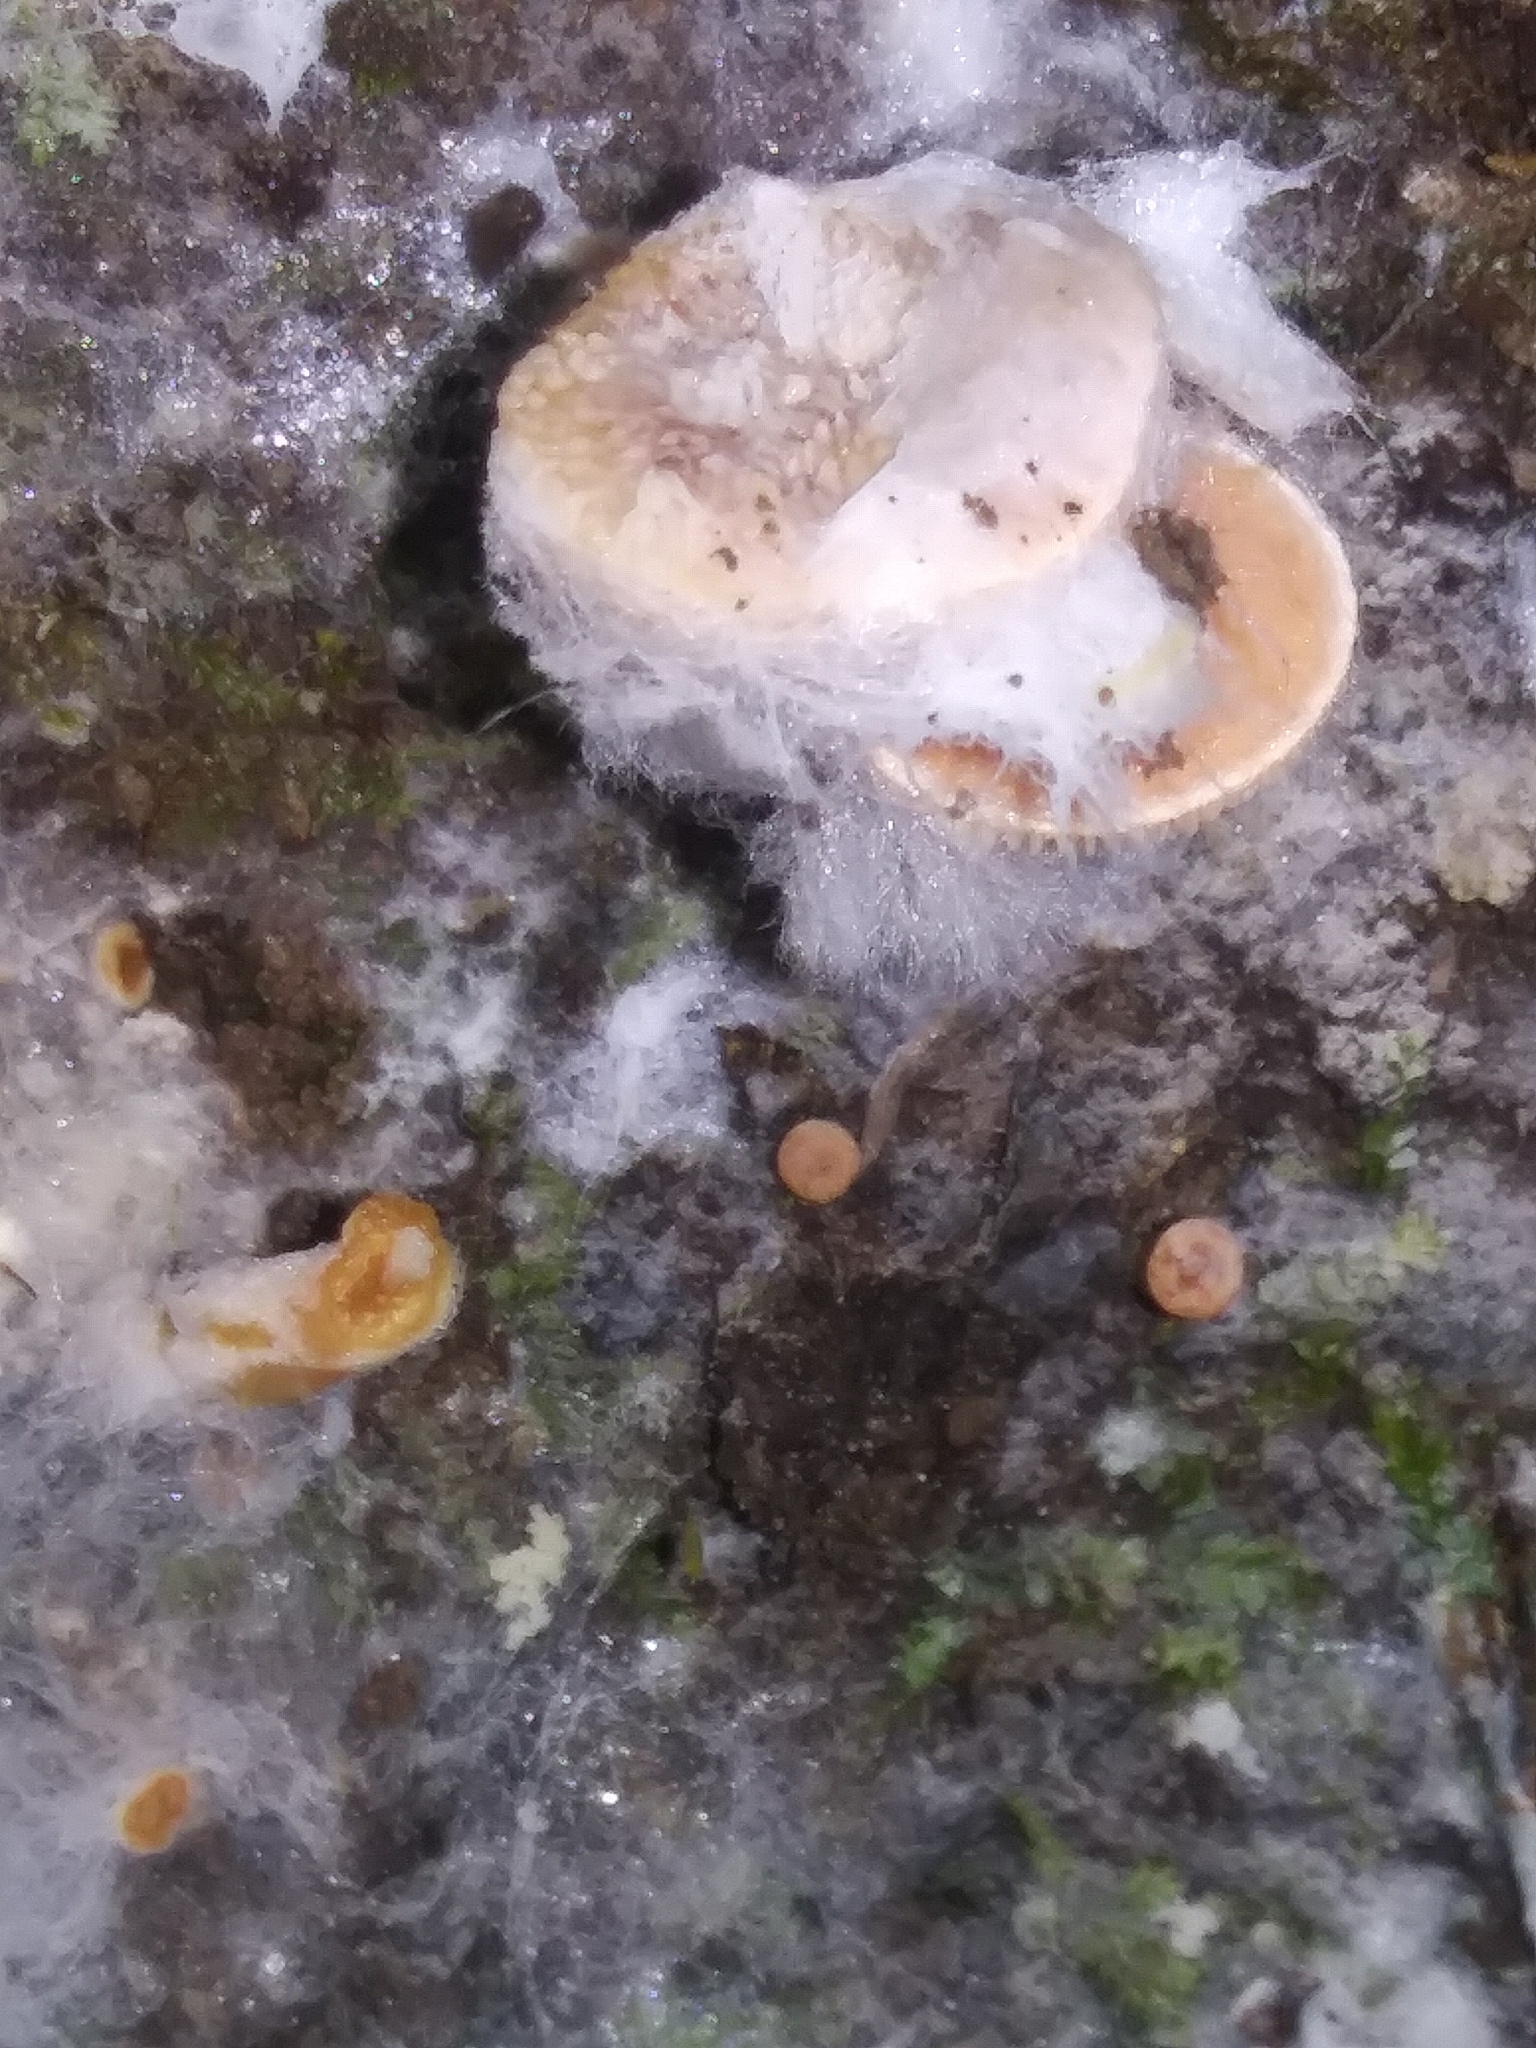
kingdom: Fungi
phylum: Mucoromycota
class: Mucoromycetes
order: Mucorales
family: Rhizopodaceae
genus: Syzygites
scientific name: Syzygites megalocarpus
